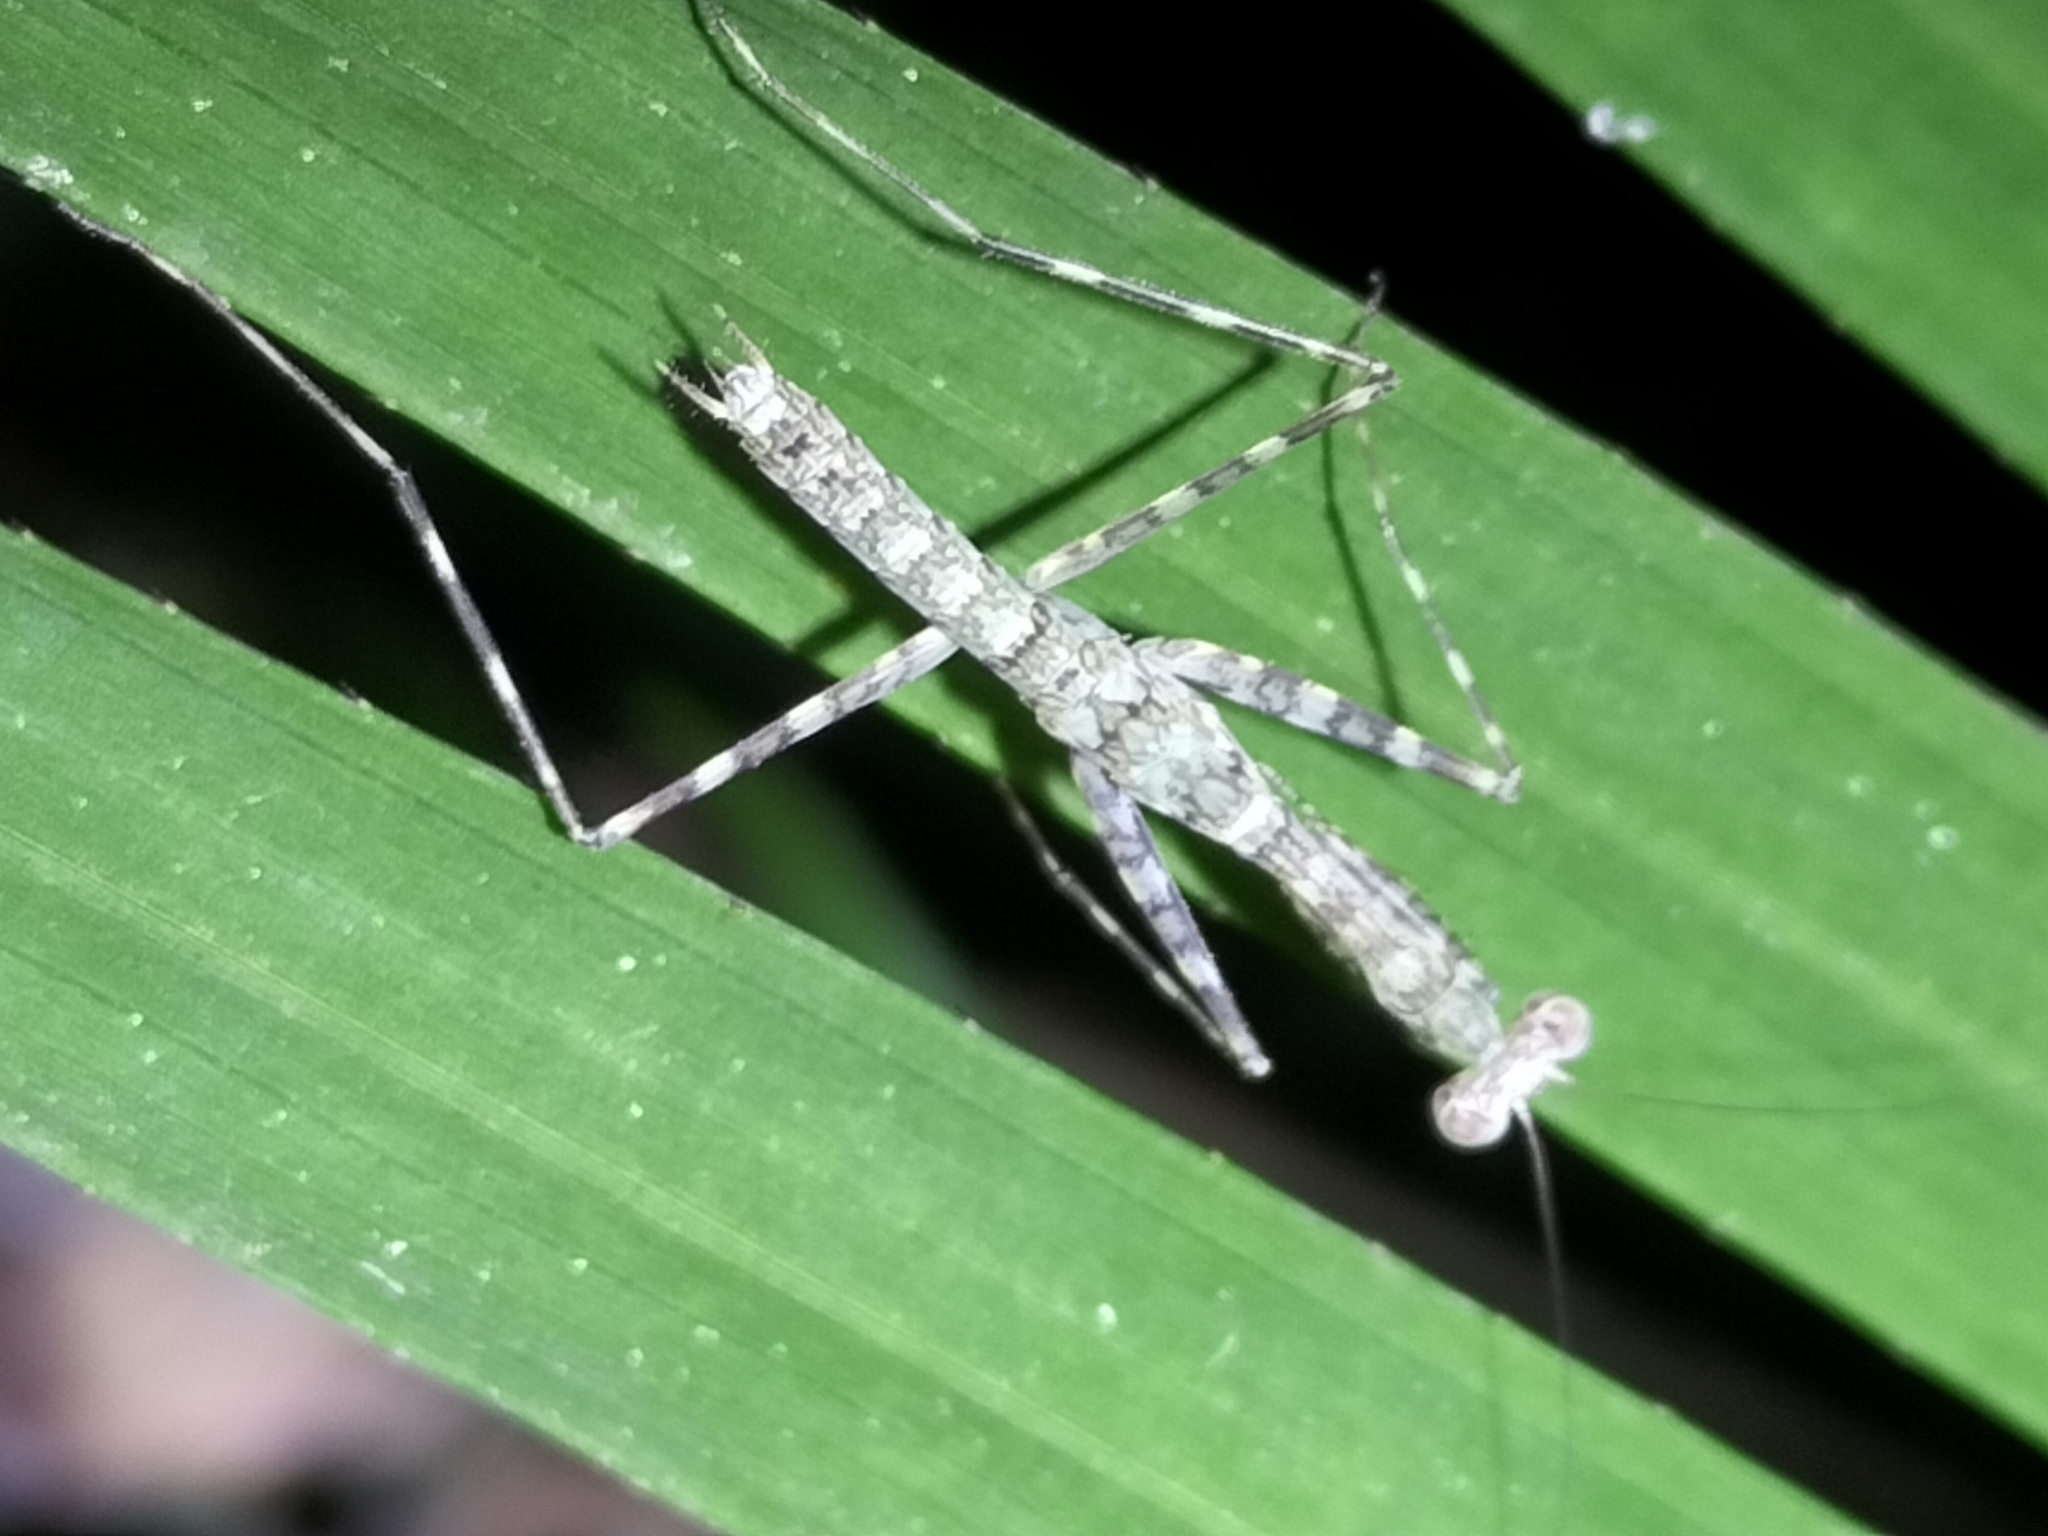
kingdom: Animalia
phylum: Arthropoda
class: Insecta
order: Mantodea
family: Nanomantidae
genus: Ciulfina
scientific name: Ciulfina rentzi
